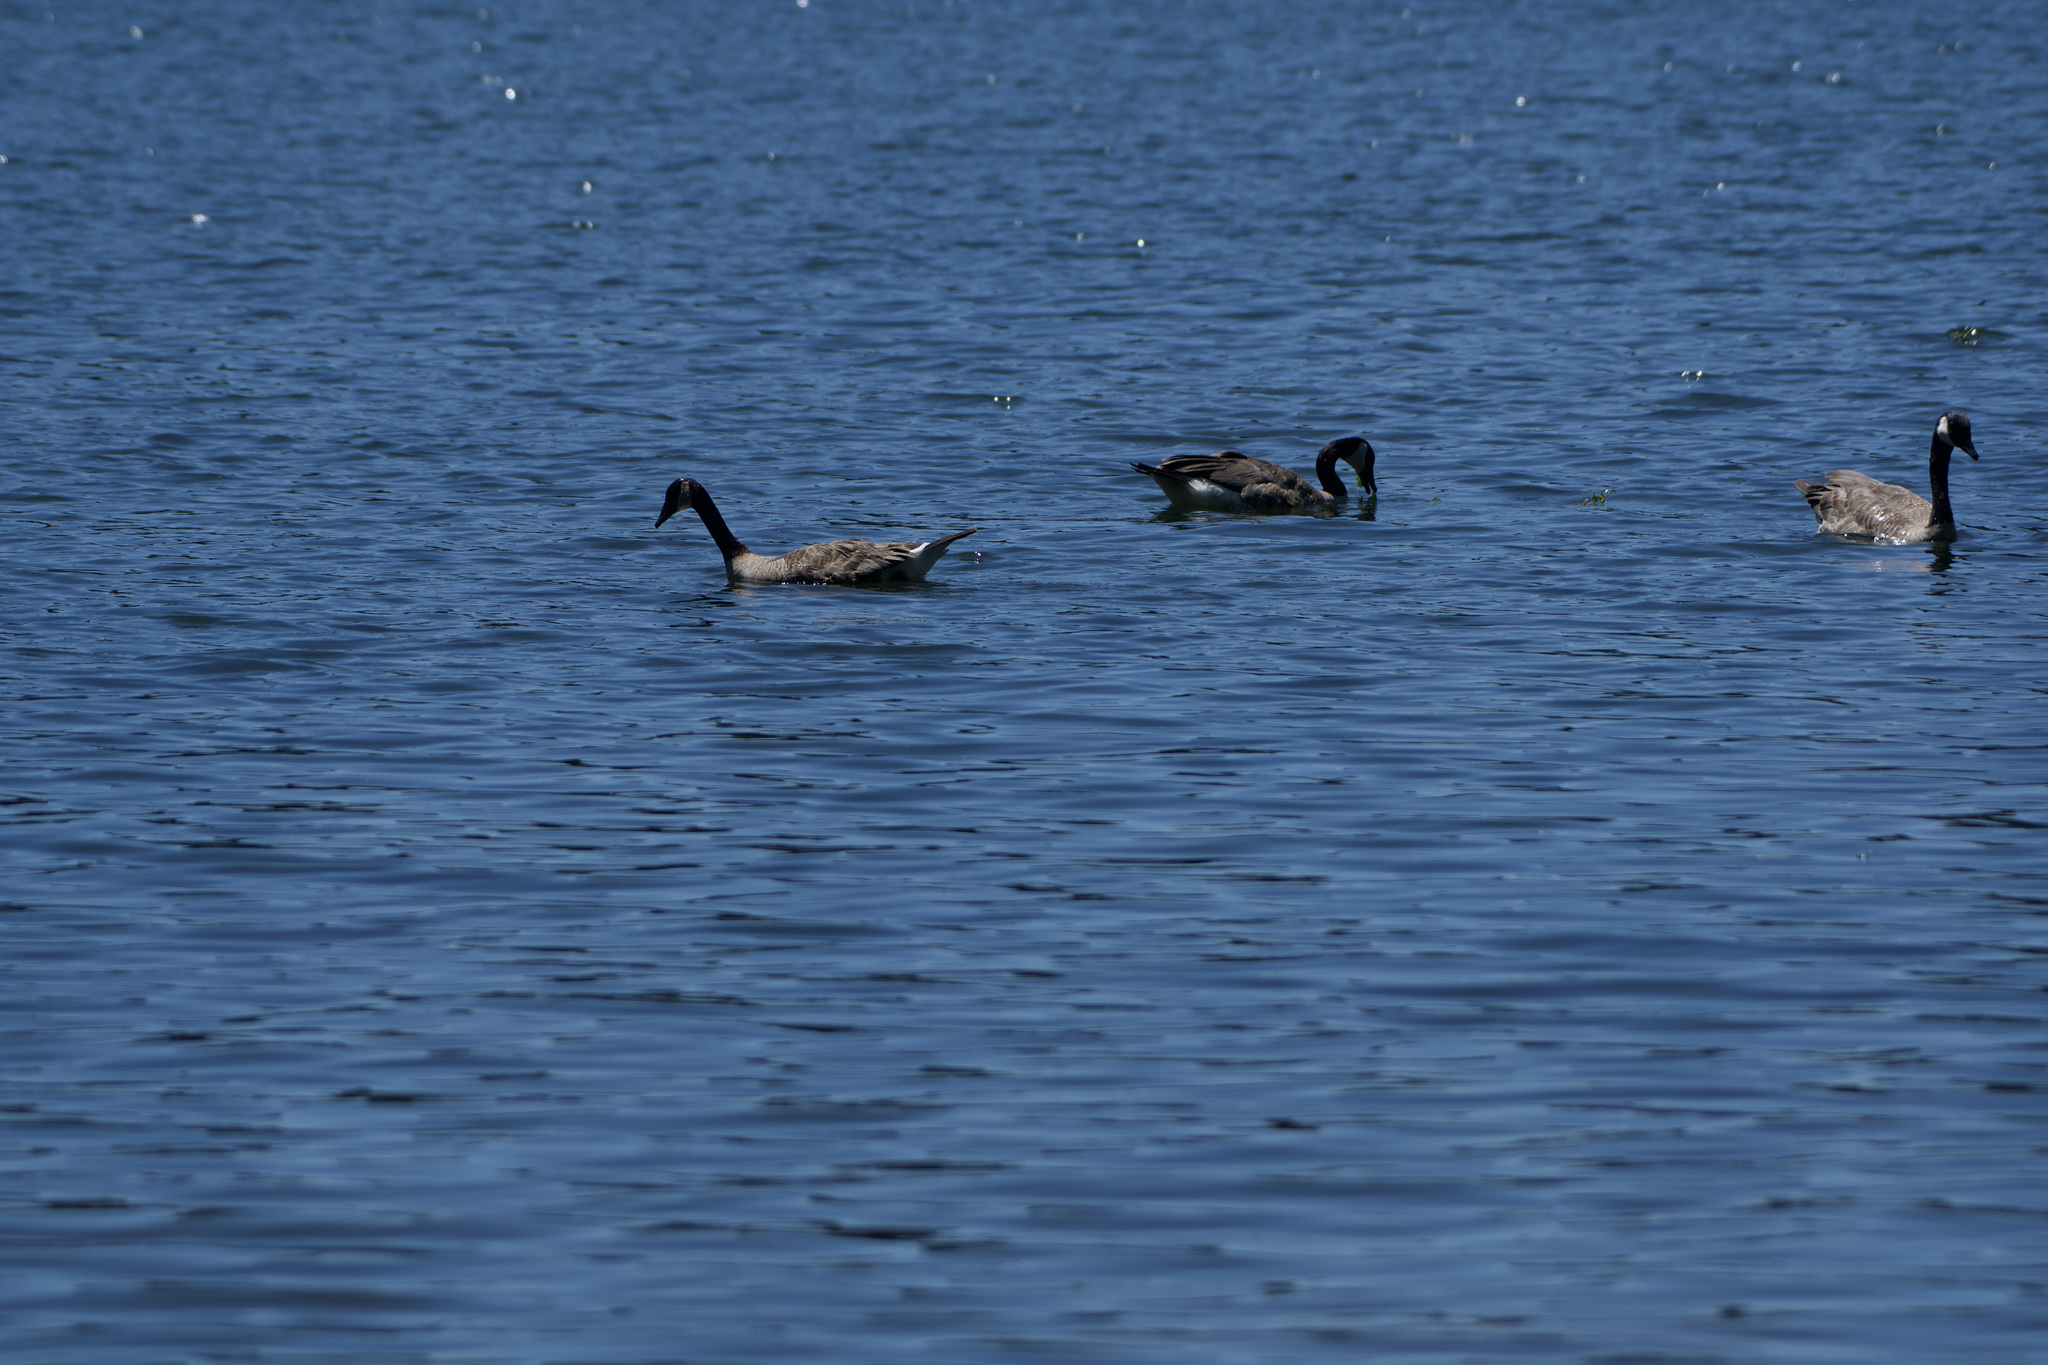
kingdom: Animalia
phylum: Chordata
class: Aves
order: Anseriformes
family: Anatidae
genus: Branta
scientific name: Branta canadensis
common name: Canada goose
